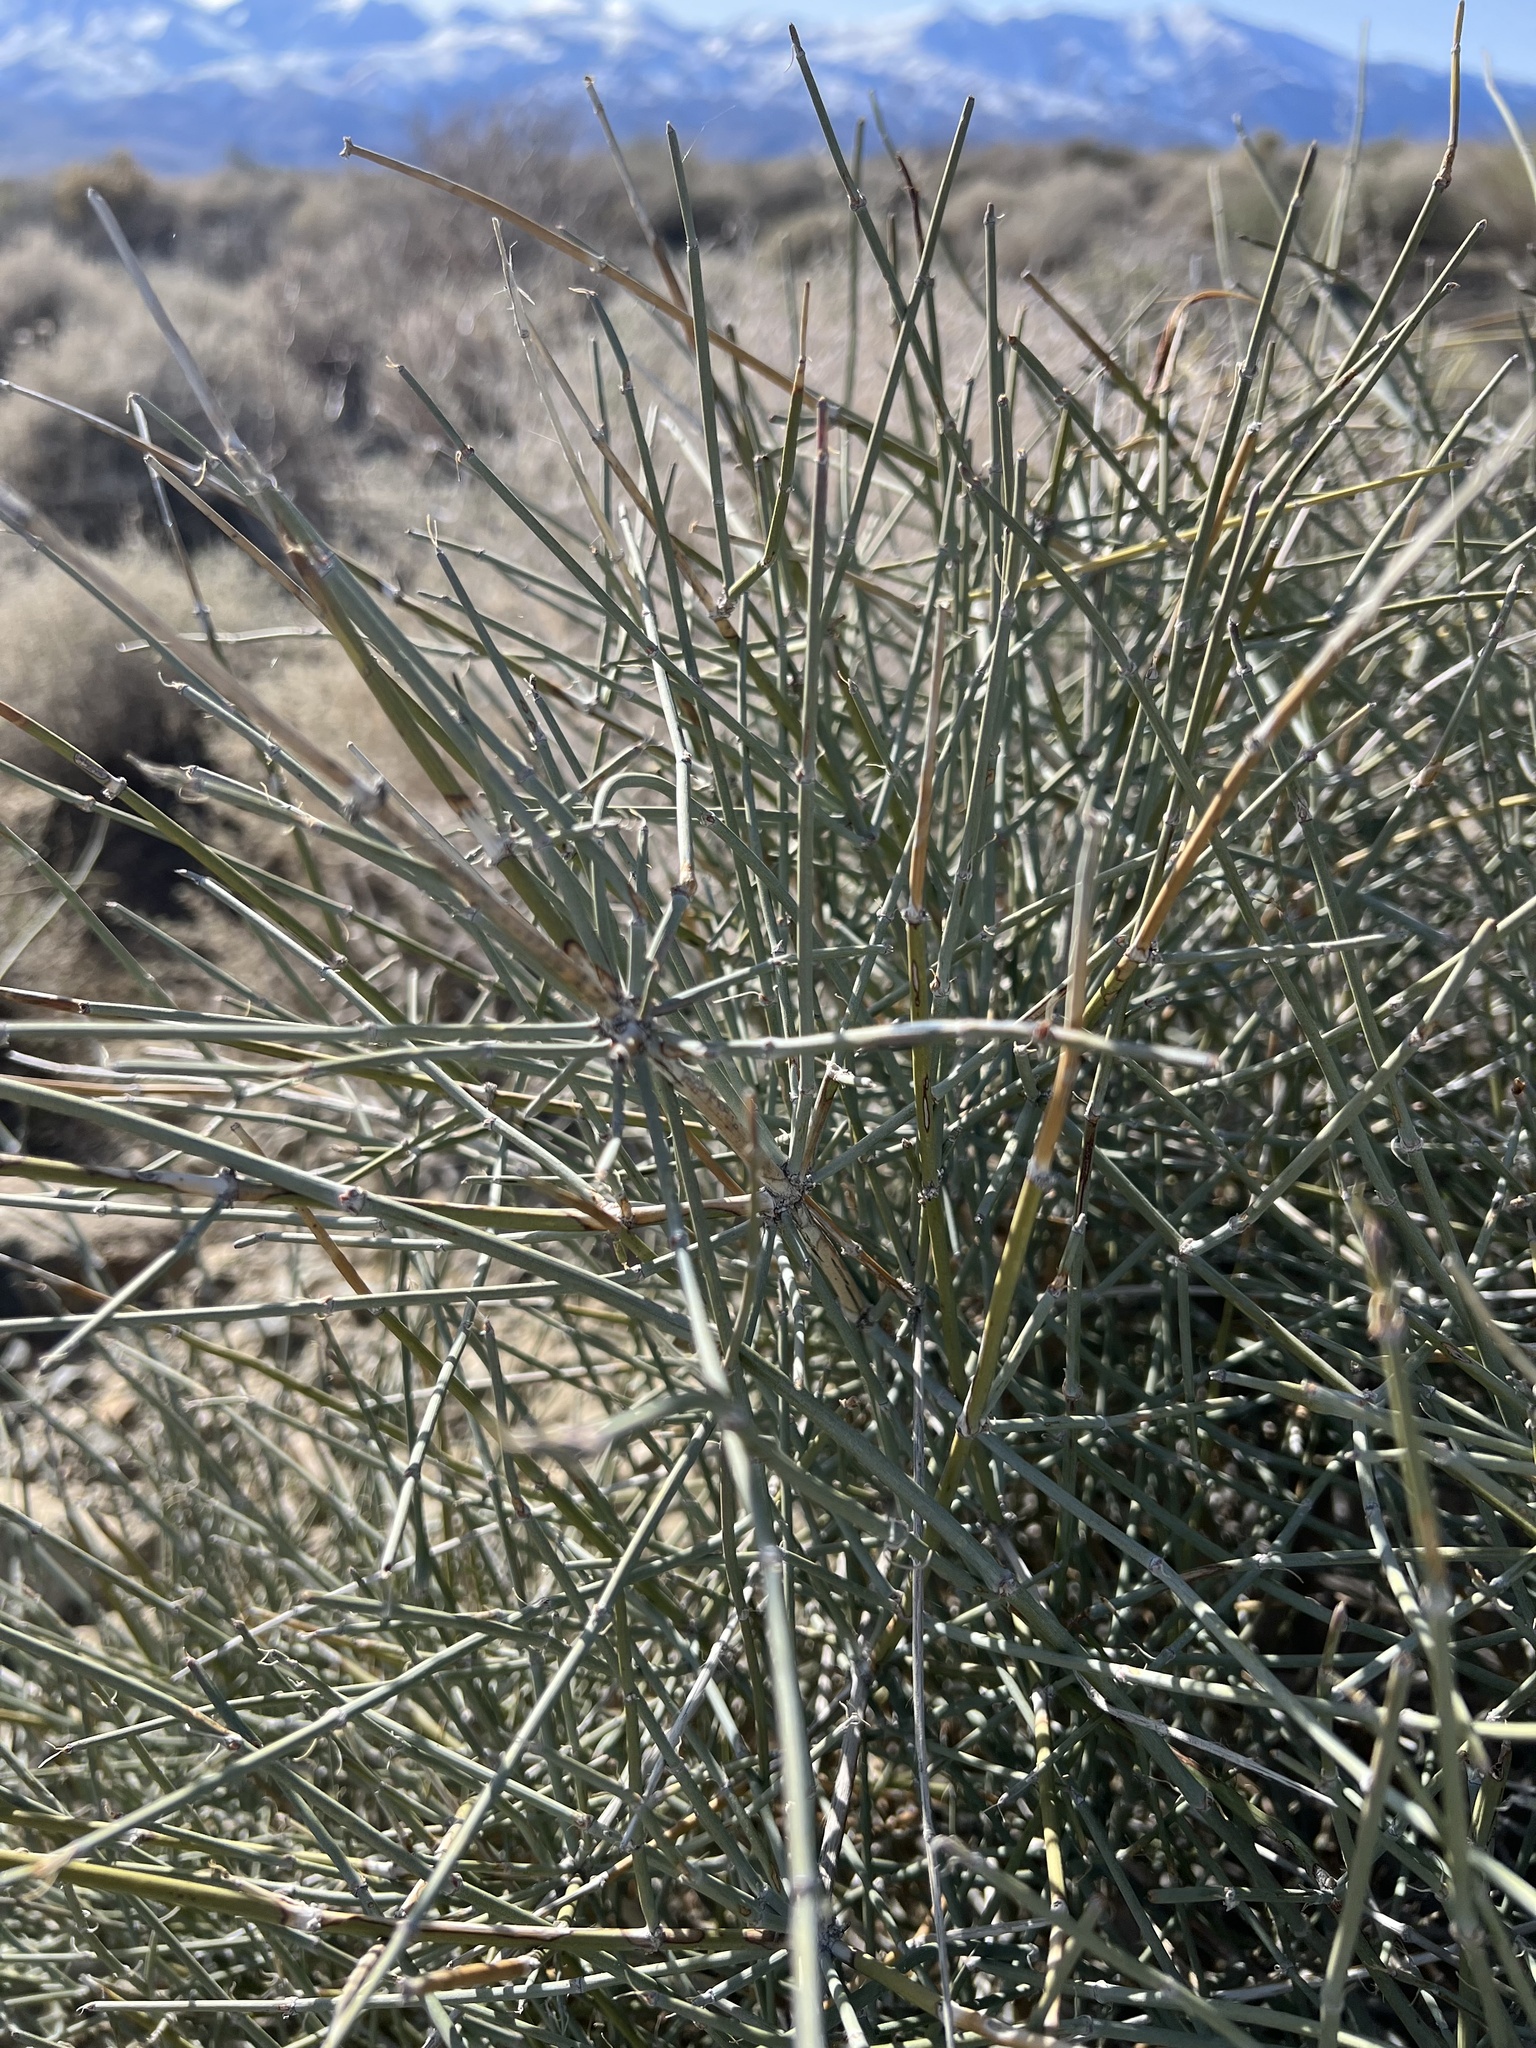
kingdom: Plantae
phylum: Tracheophyta
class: Gnetopsida
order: Ephedrales
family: Ephedraceae
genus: Ephedra
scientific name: Ephedra nevadensis
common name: Gray ephedra
